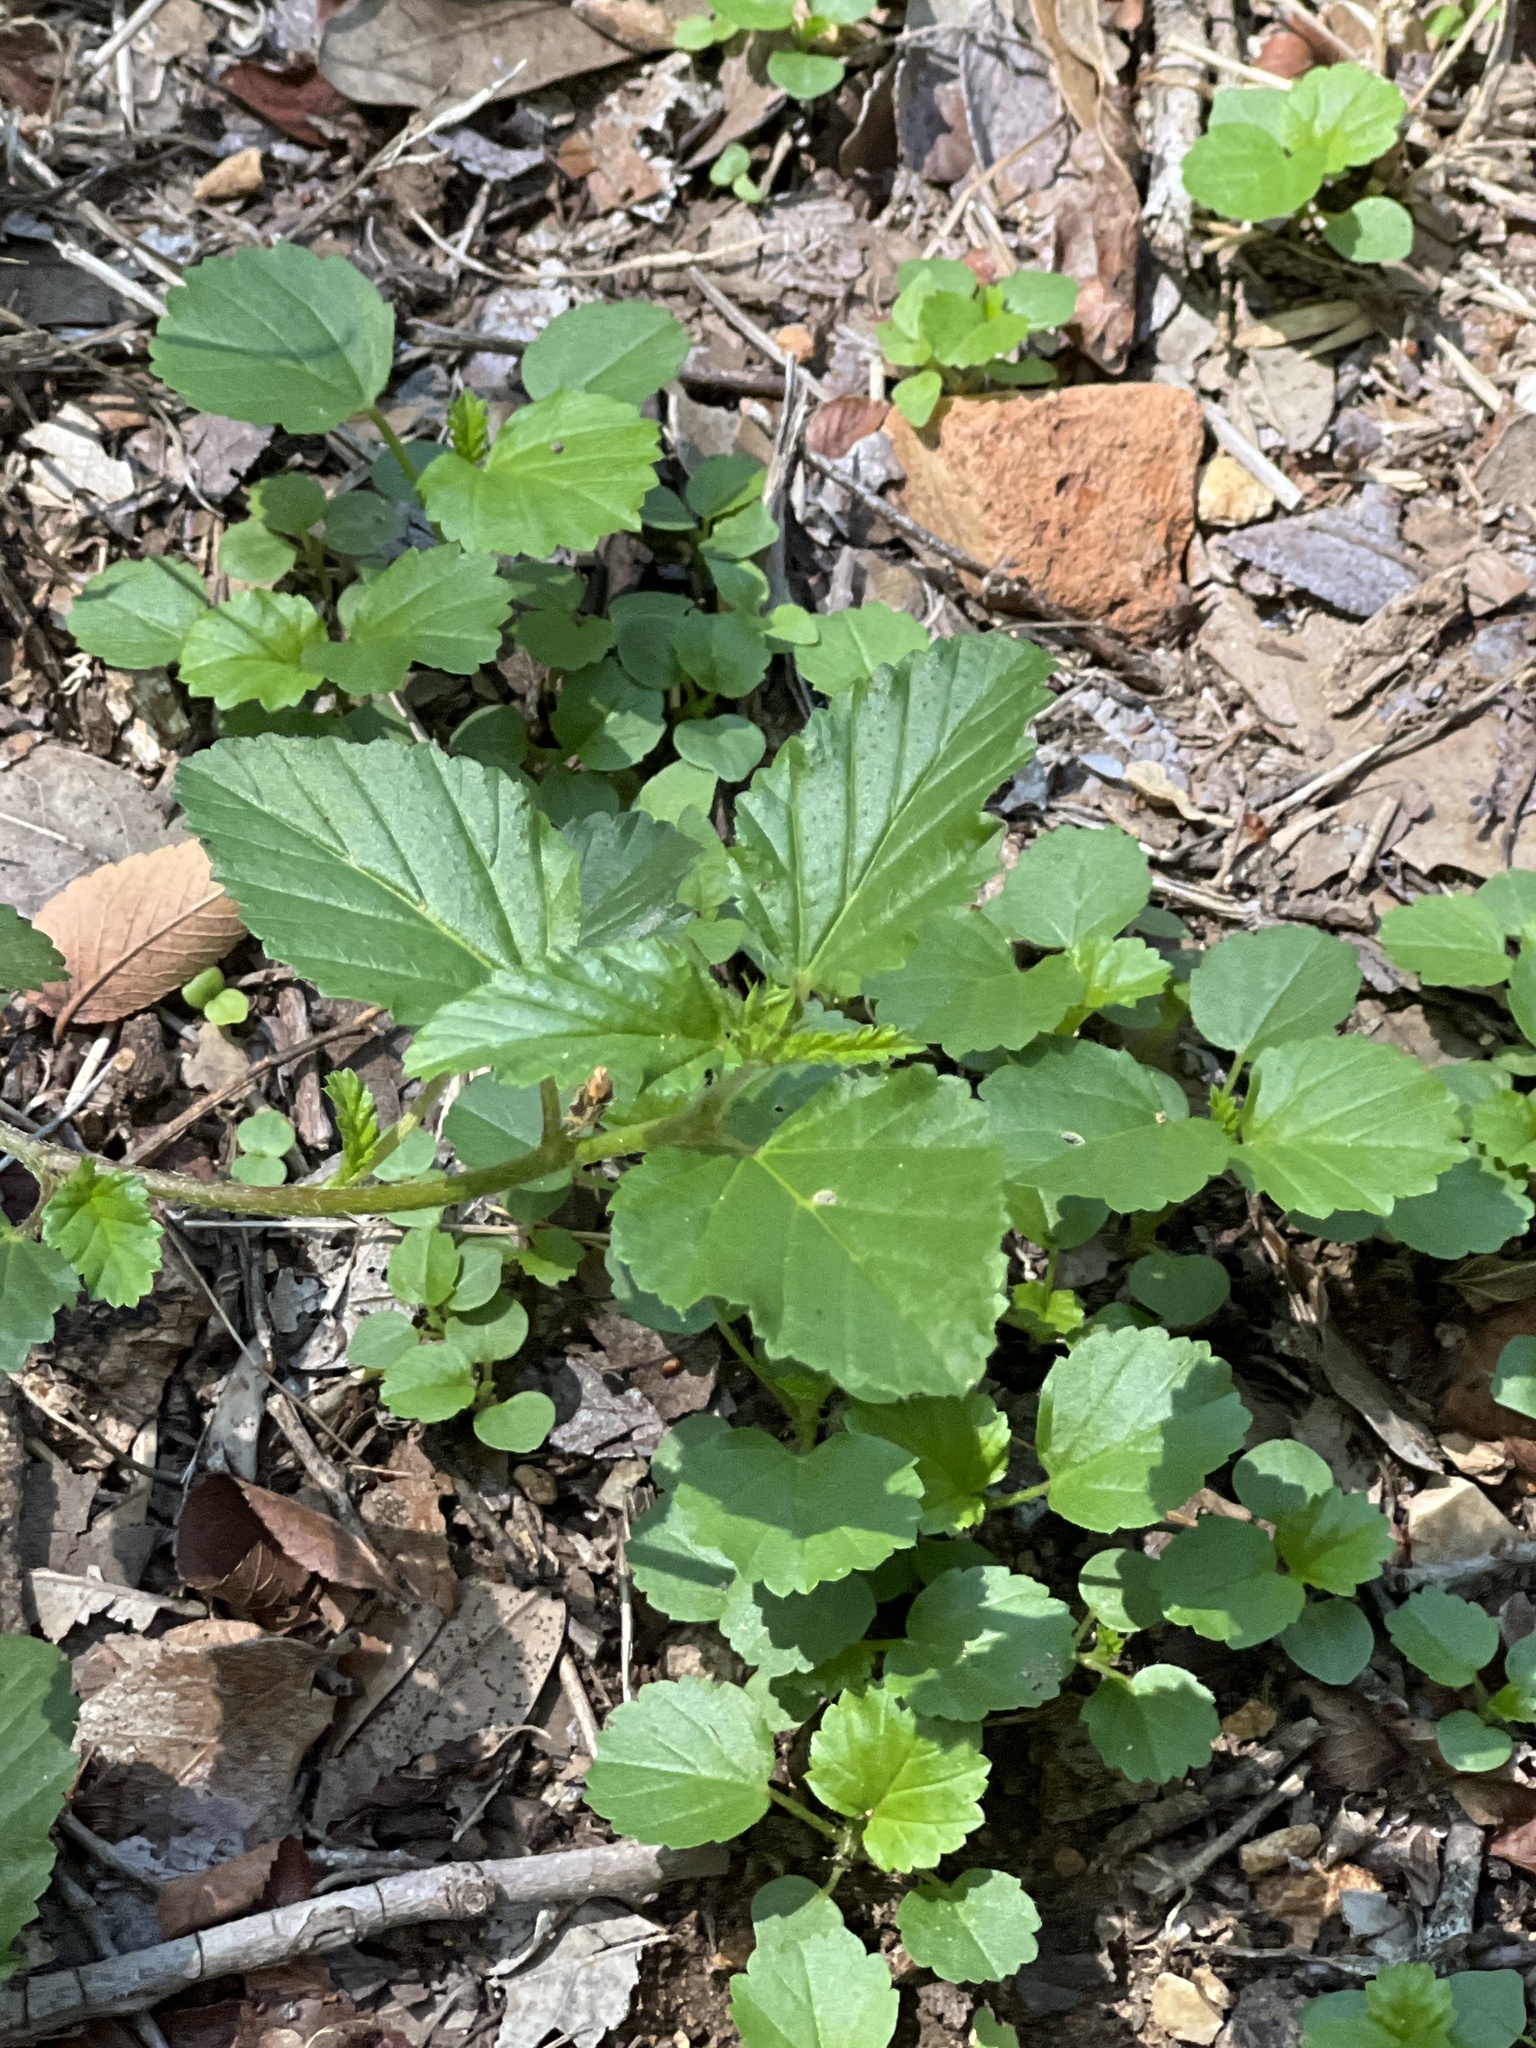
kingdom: Plantae
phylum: Tracheophyta
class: Magnoliopsida
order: Malvales
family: Malvaceae
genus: Malvastrum
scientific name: Malvastrum coromandelianum
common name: Threelobe false mallow
